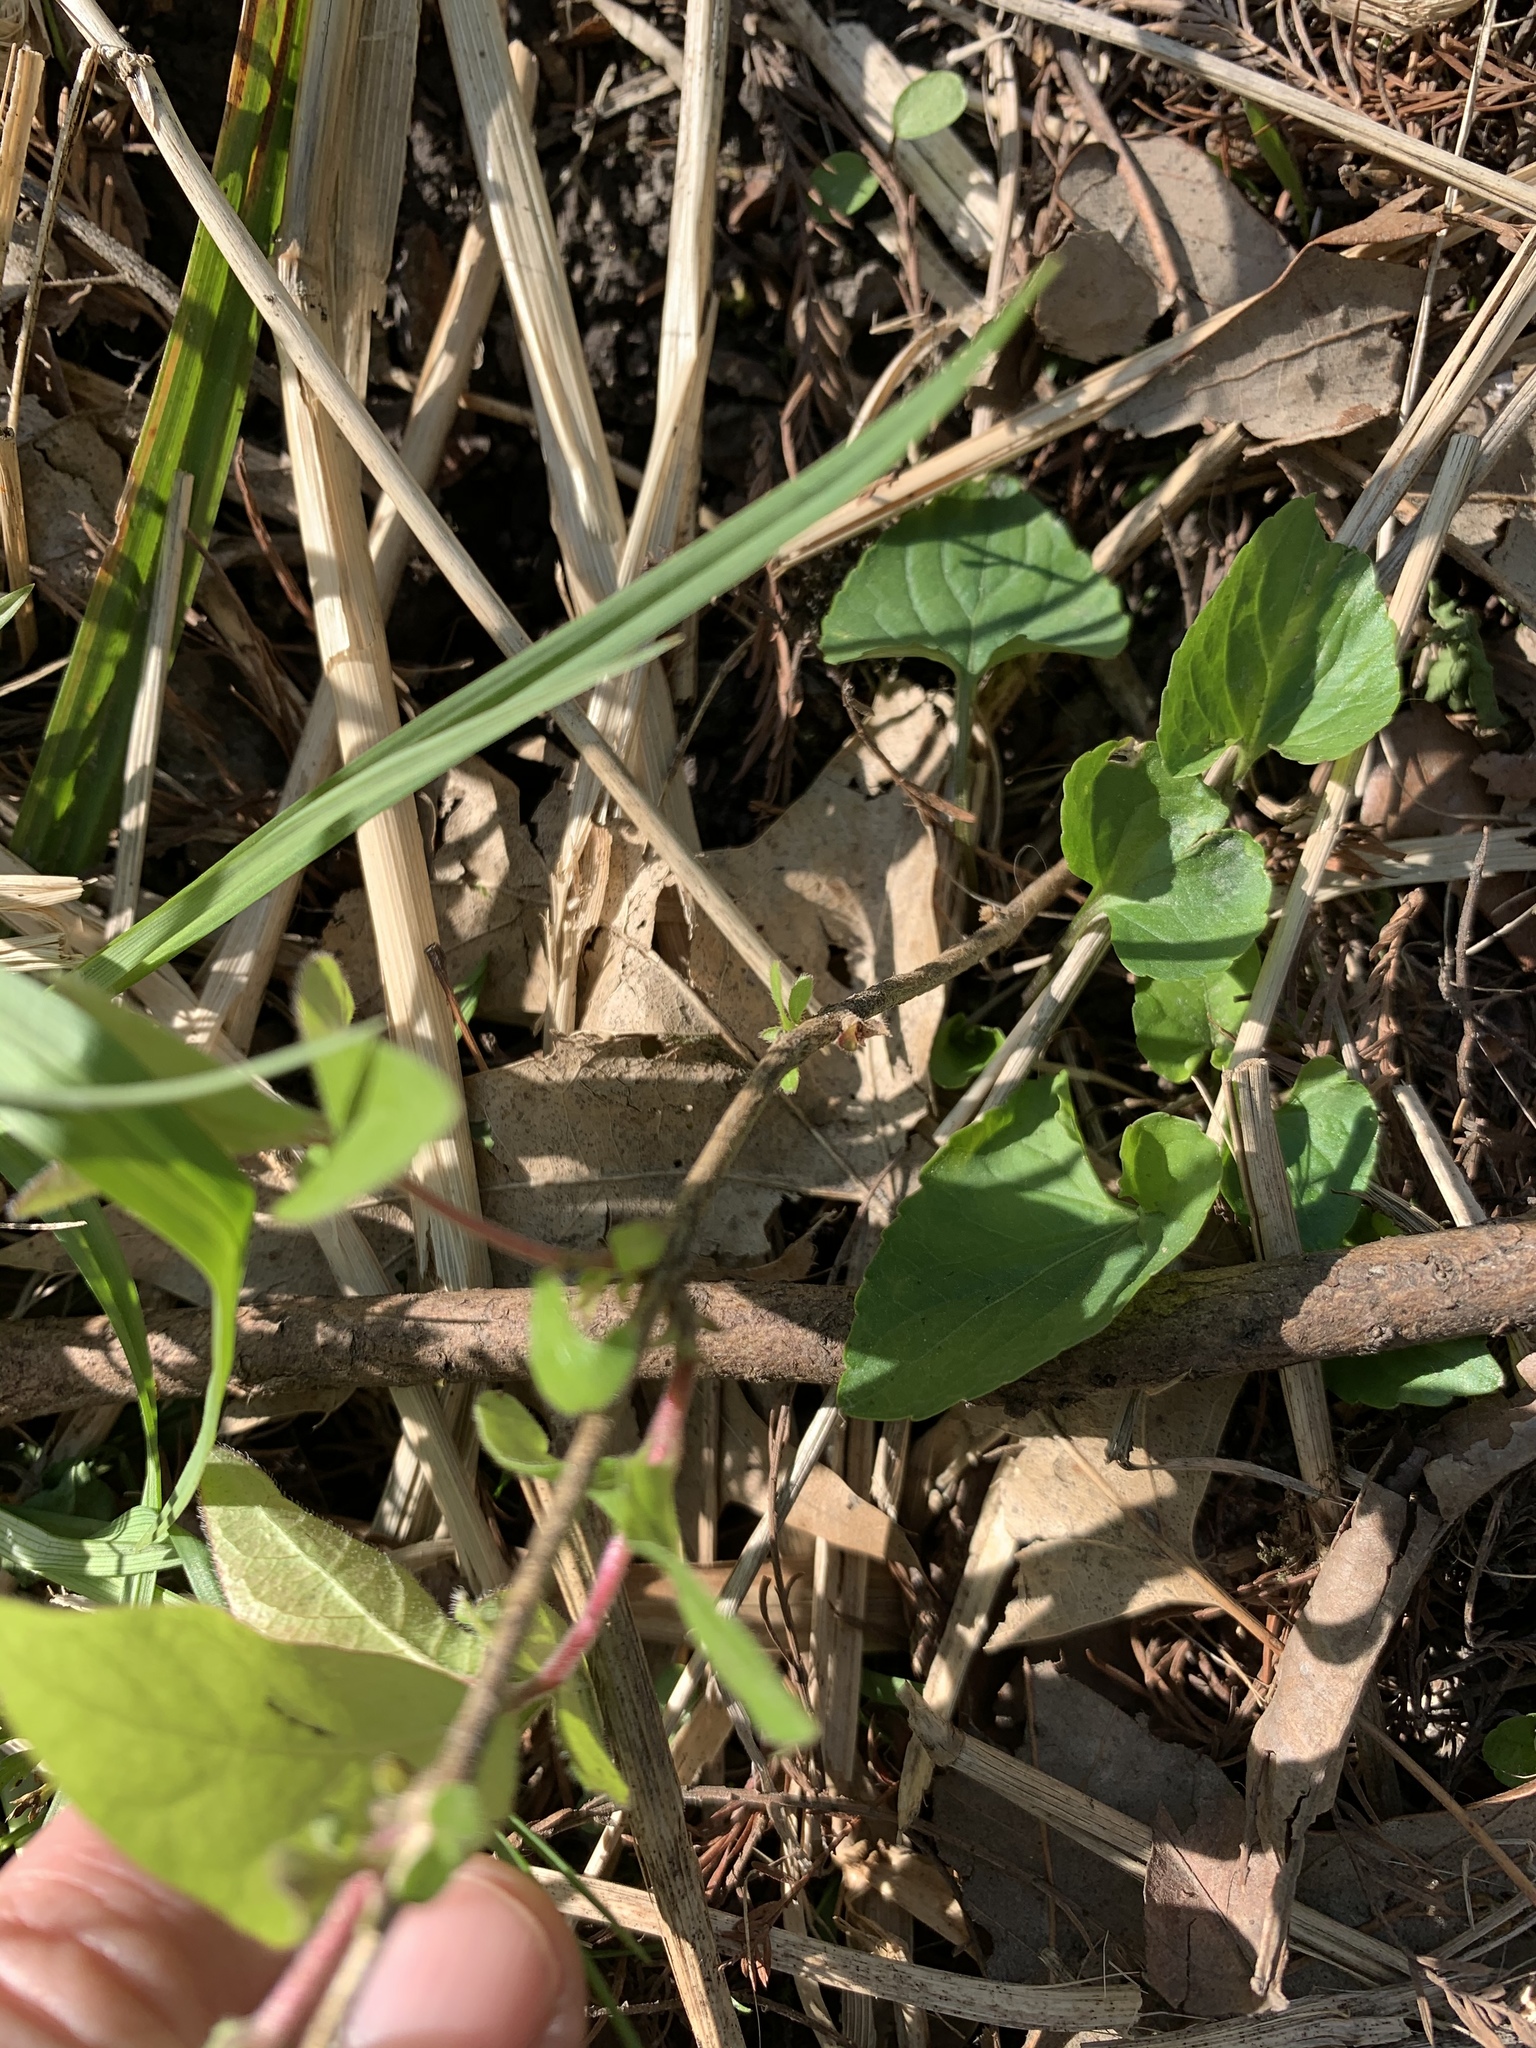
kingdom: Plantae
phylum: Tracheophyta
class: Magnoliopsida
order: Dipsacales
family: Caprifoliaceae
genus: Lonicera
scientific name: Lonicera maackii
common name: Amur honeysuckle
